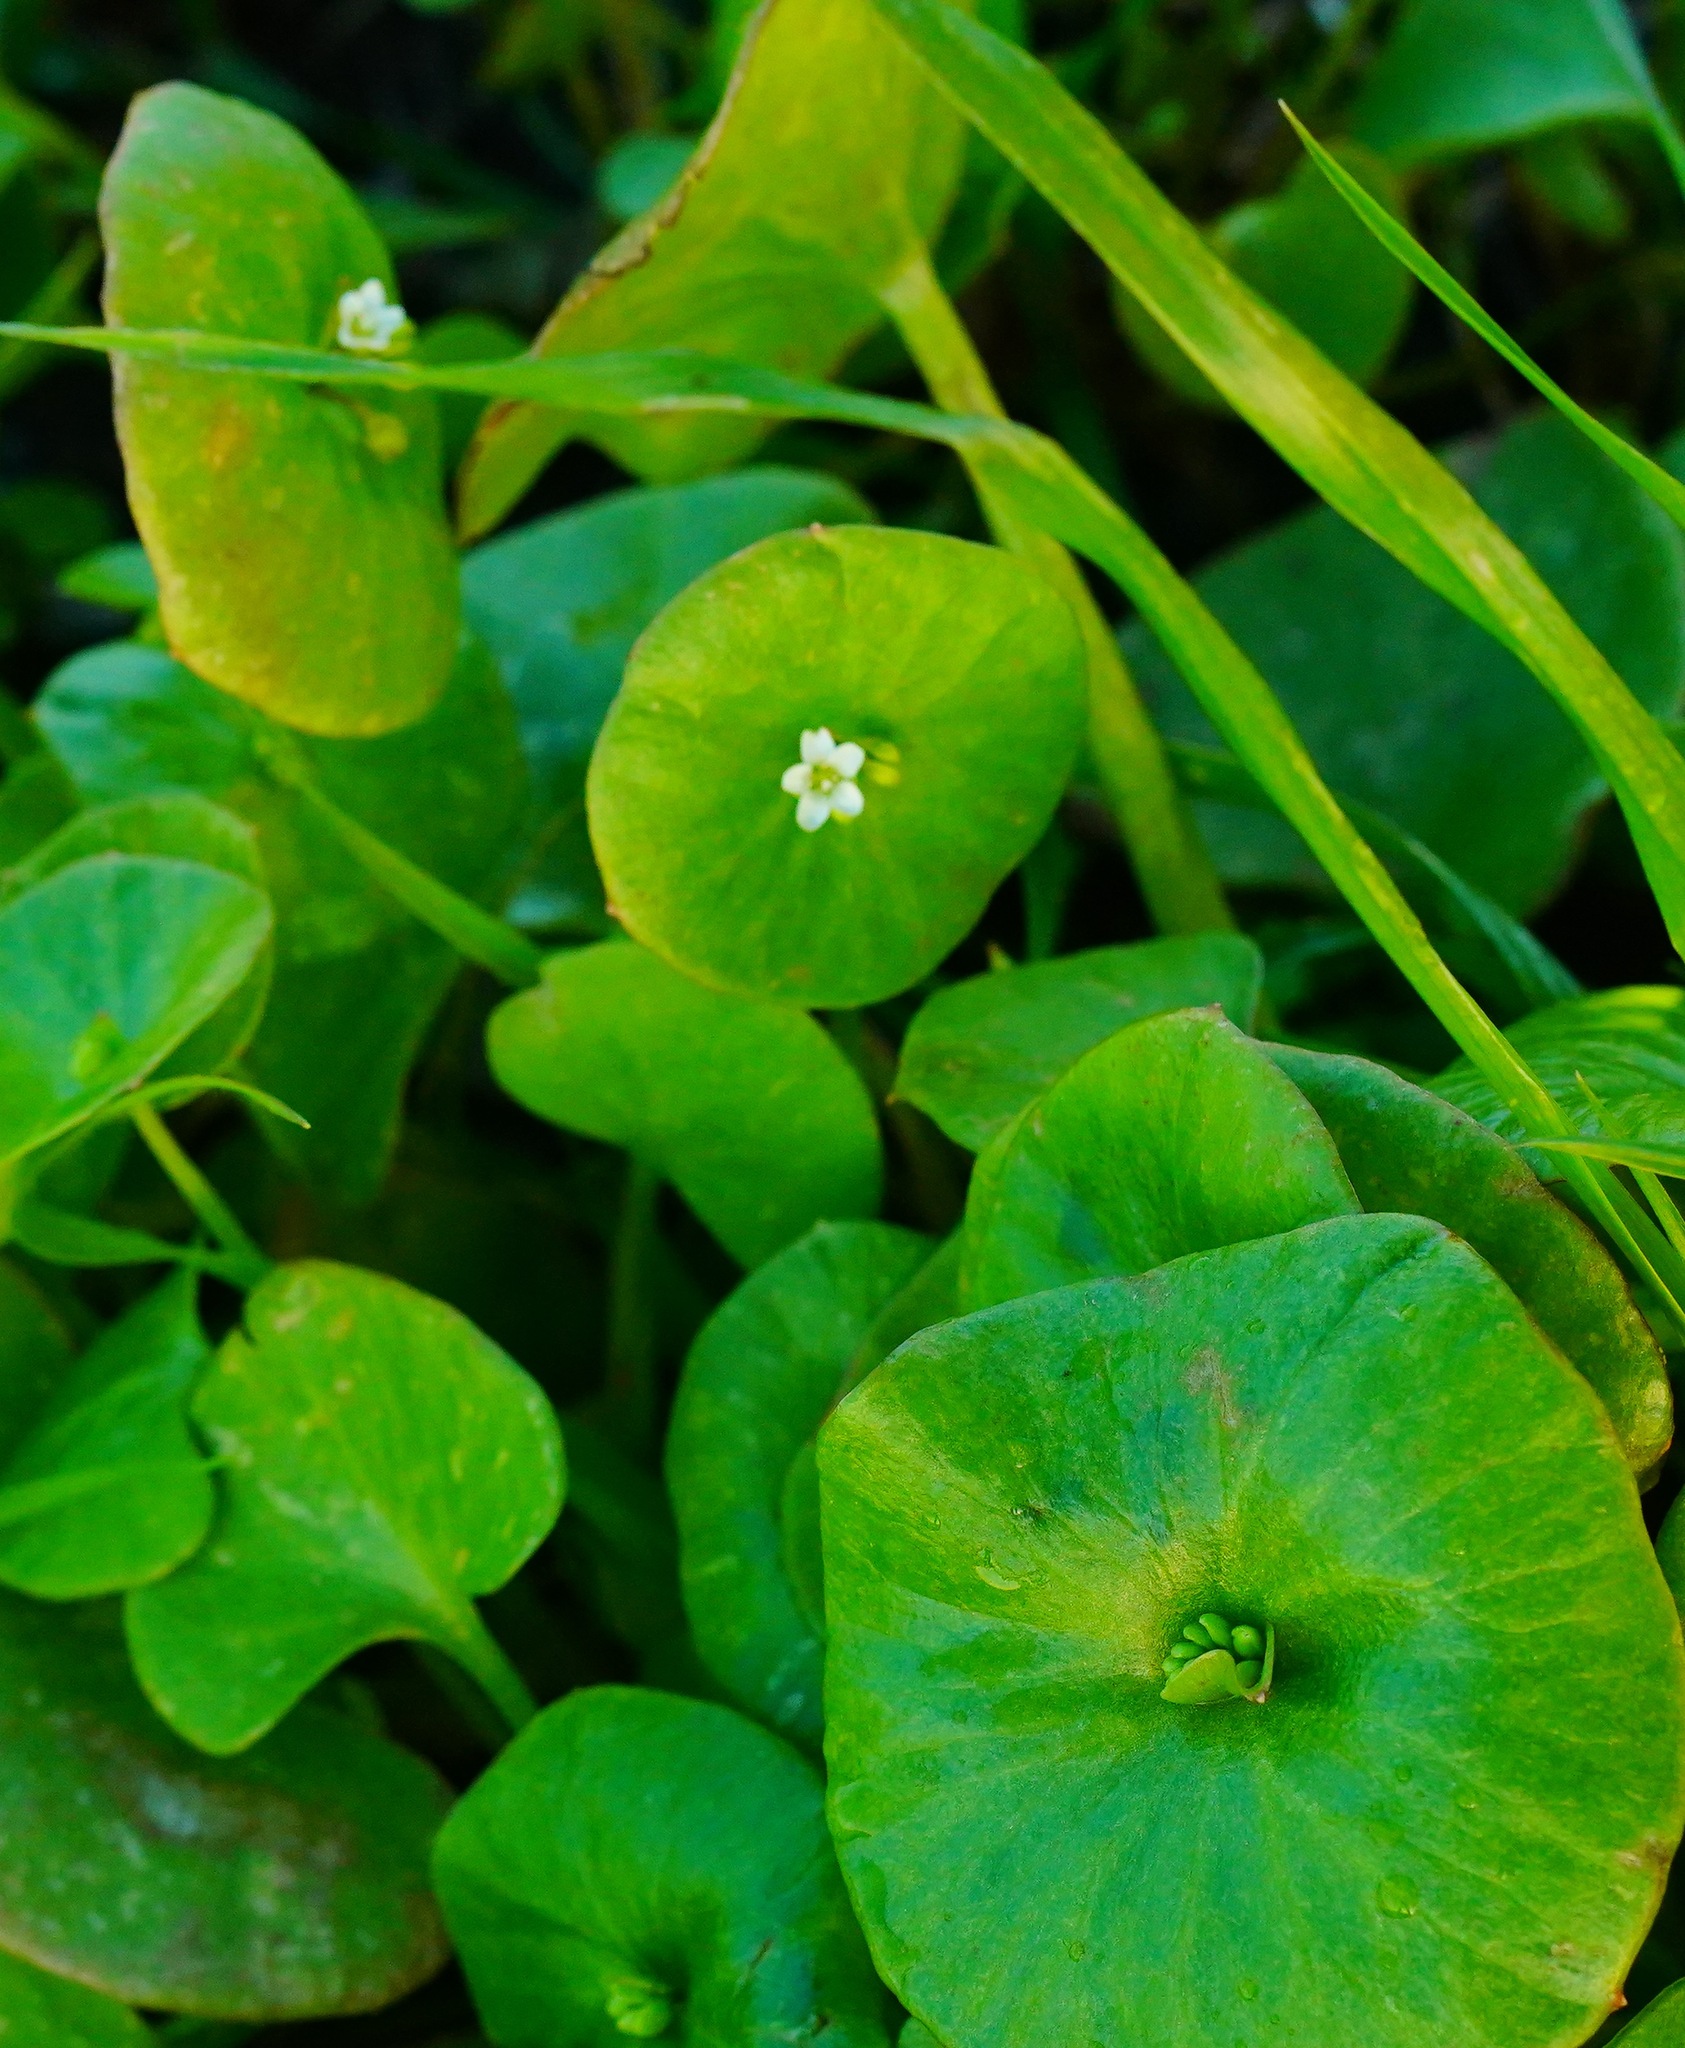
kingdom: Plantae
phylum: Tracheophyta
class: Magnoliopsida
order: Caryophyllales
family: Montiaceae
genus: Claytonia
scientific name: Claytonia perfoliata
